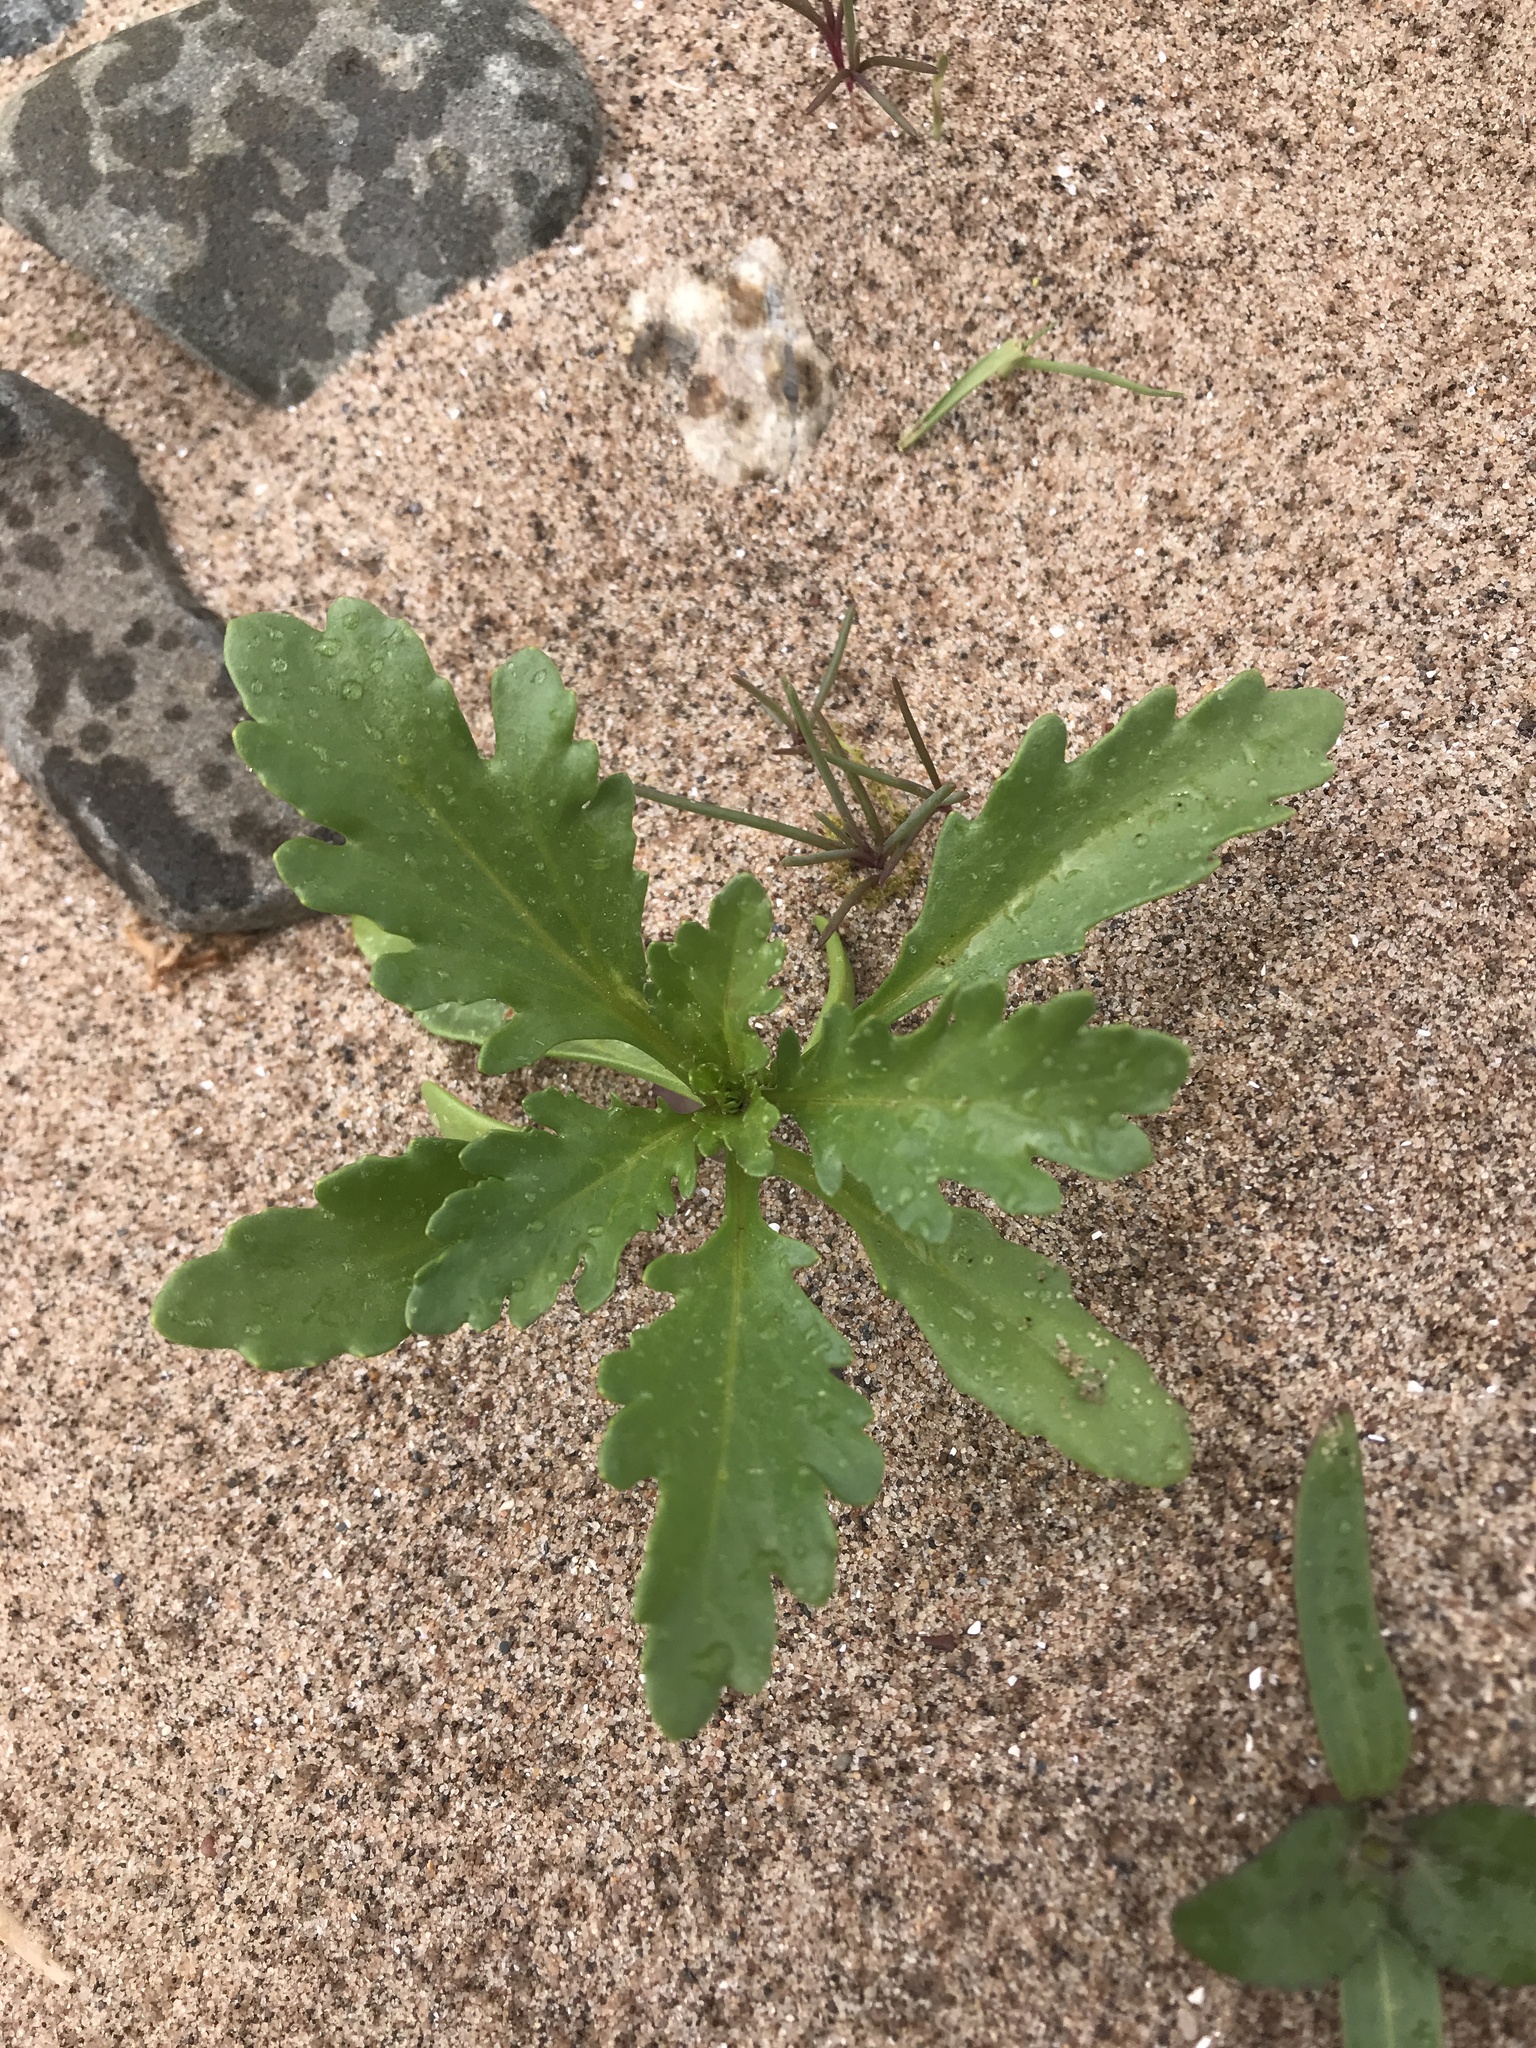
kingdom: Plantae
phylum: Tracheophyta
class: Magnoliopsida
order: Brassicales
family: Brassicaceae
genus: Cakile
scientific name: Cakile edentula
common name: American sea rocket
